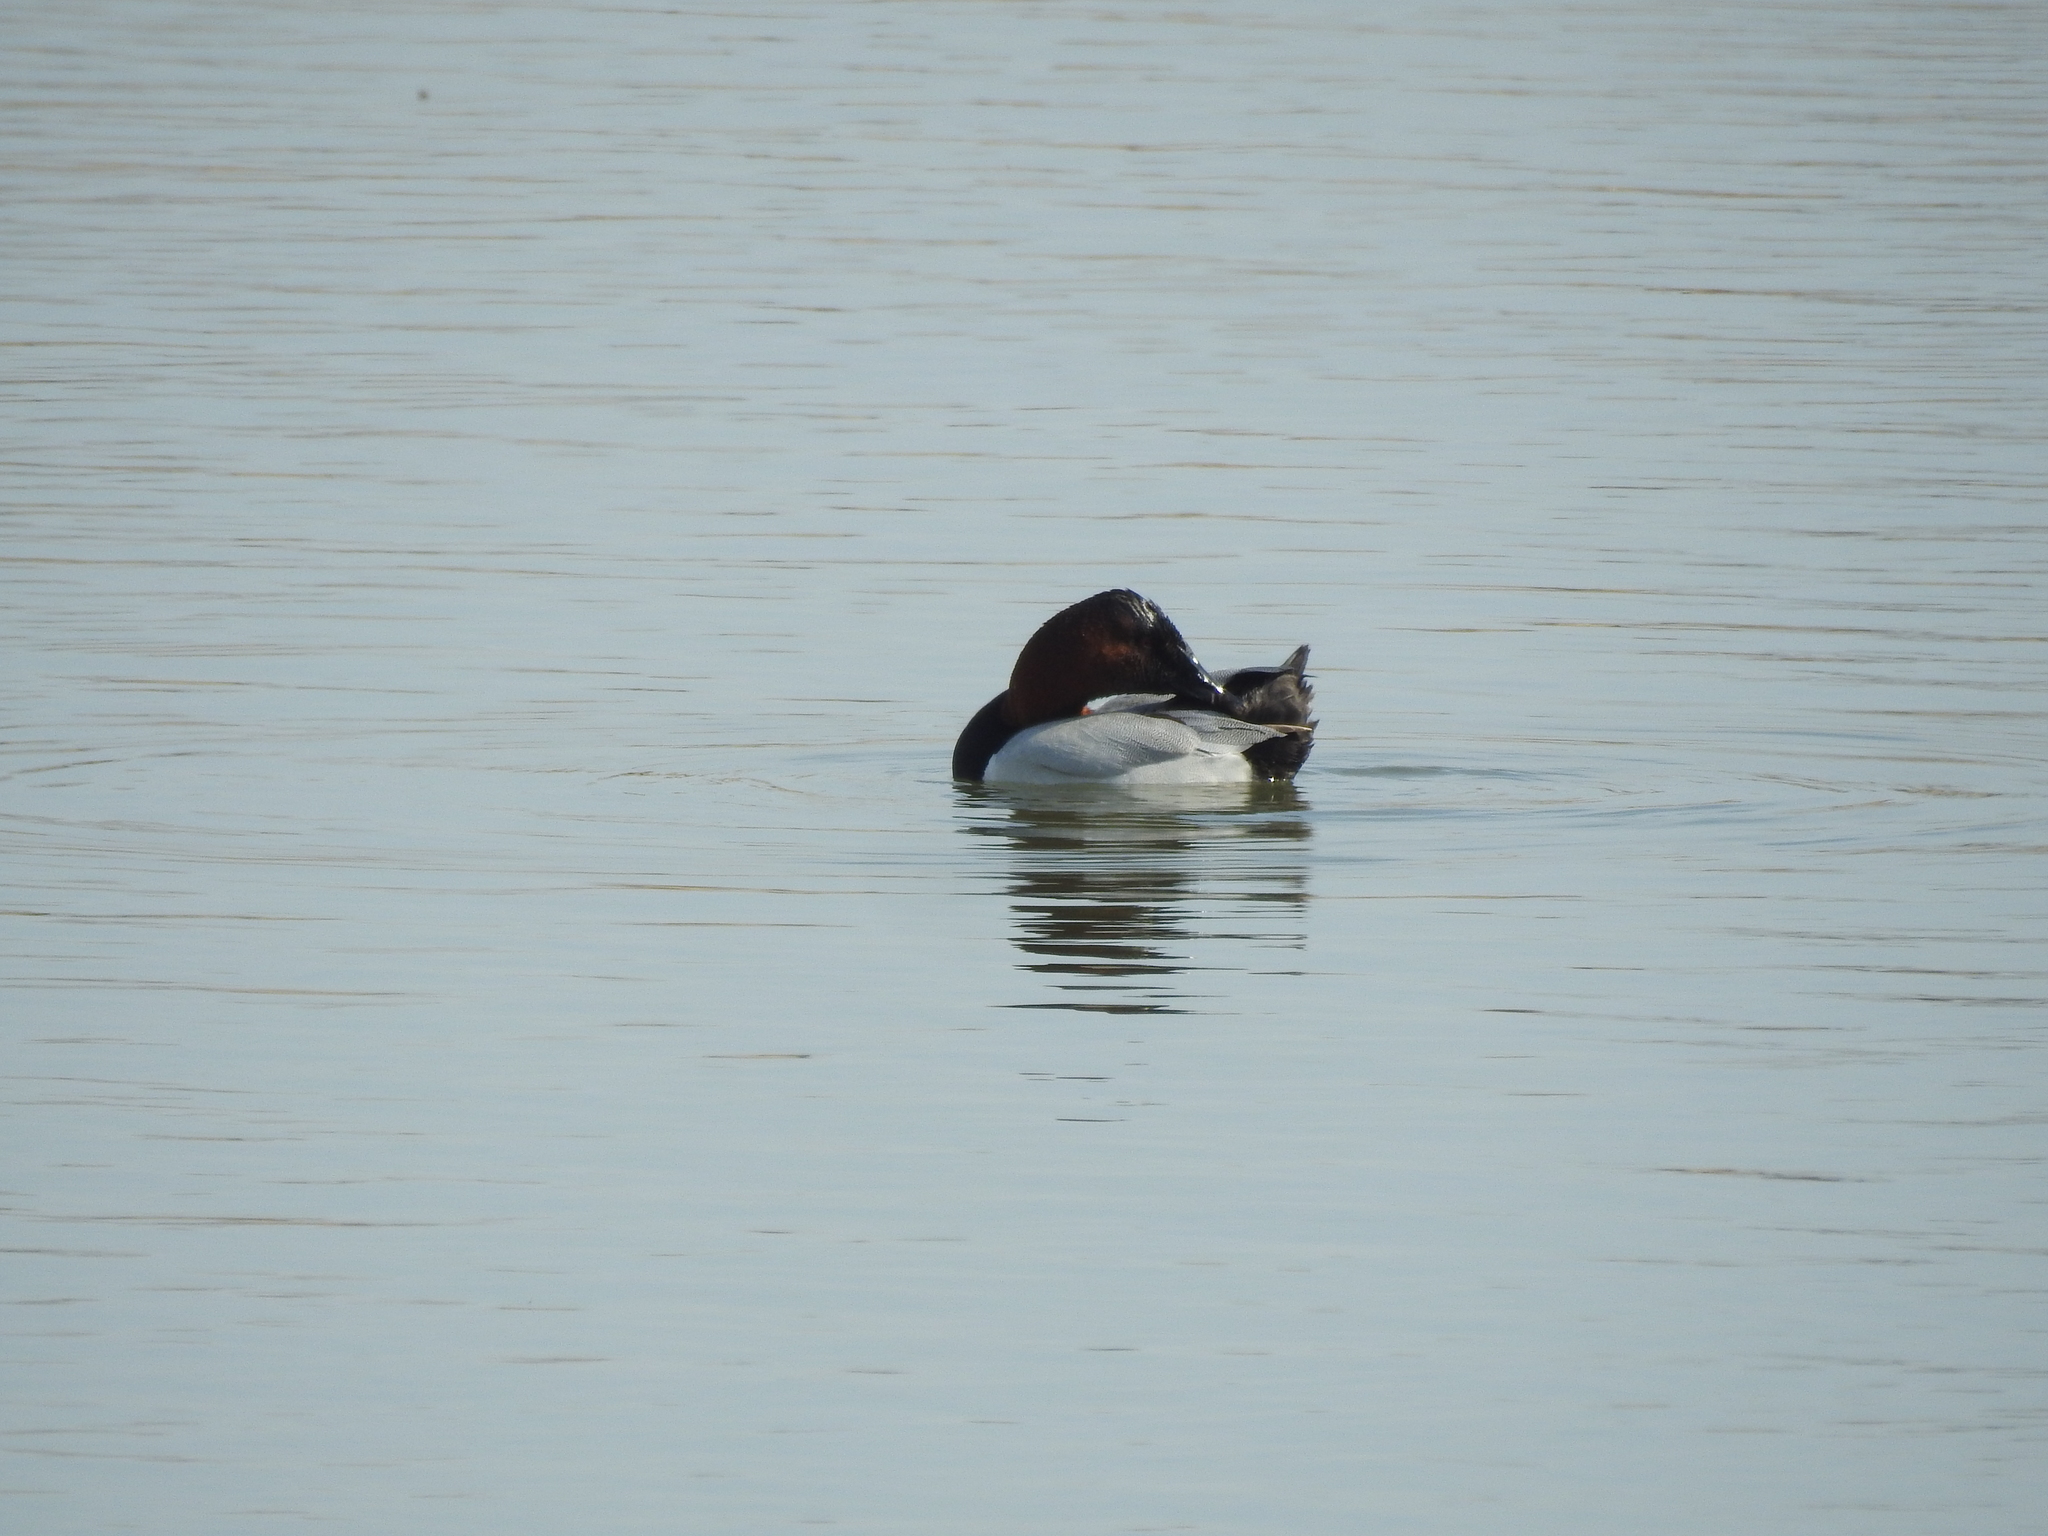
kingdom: Animalia
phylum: Chordata
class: Aves
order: Anseriformes
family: Anatidae
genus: Aythya
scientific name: Aythya valisineria
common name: Canvasback
